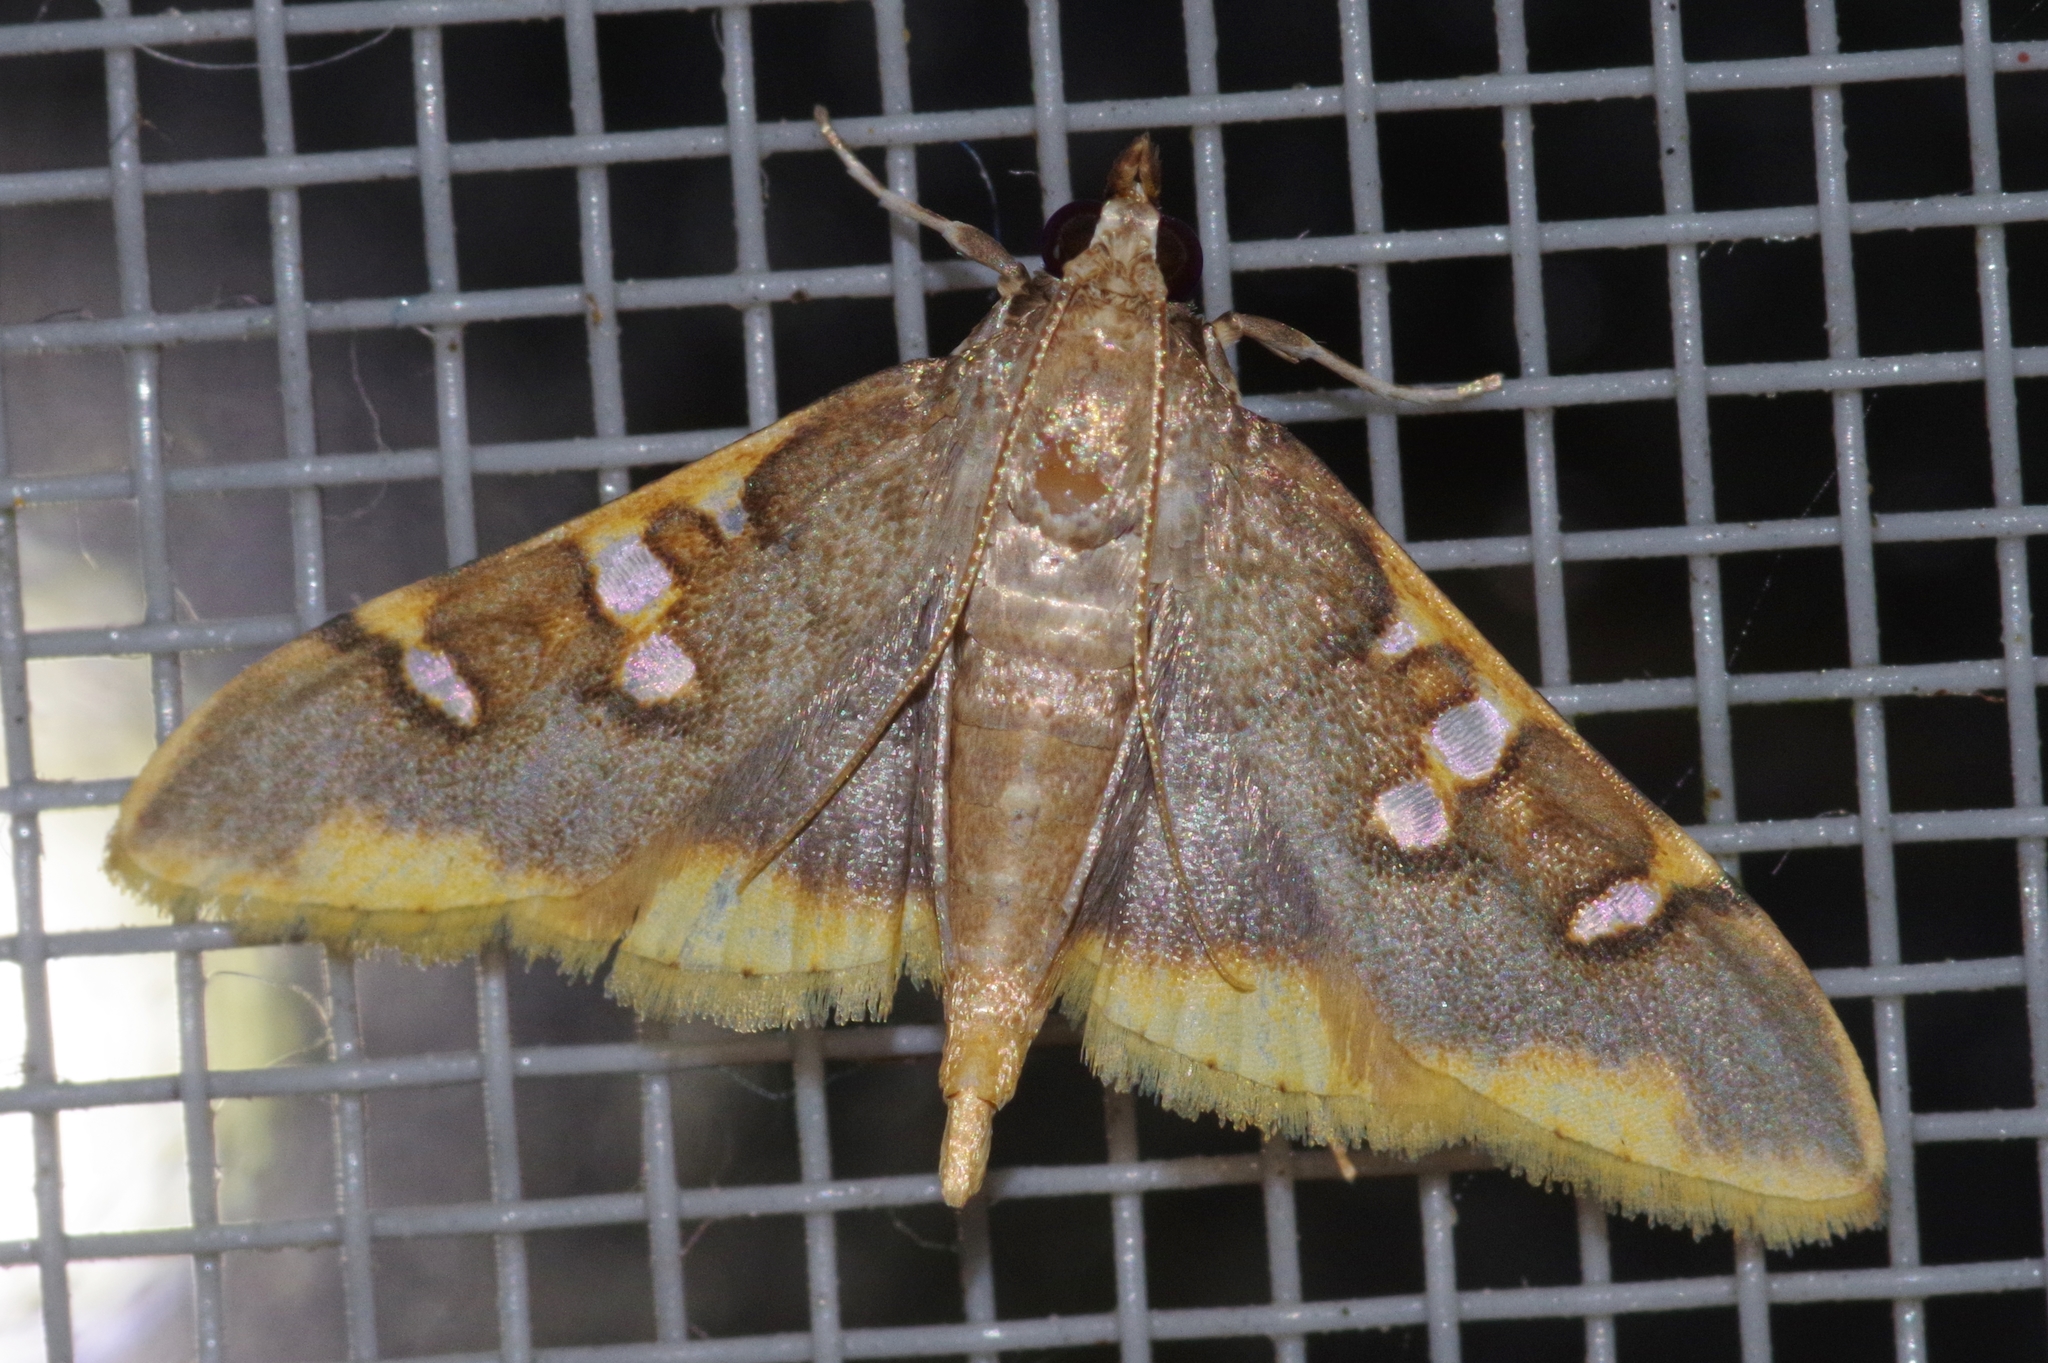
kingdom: Animalia
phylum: Arthropoda
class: Insecta
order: Lepidoptera
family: Crambidae
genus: Prophantis
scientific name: Prophantis adusta
